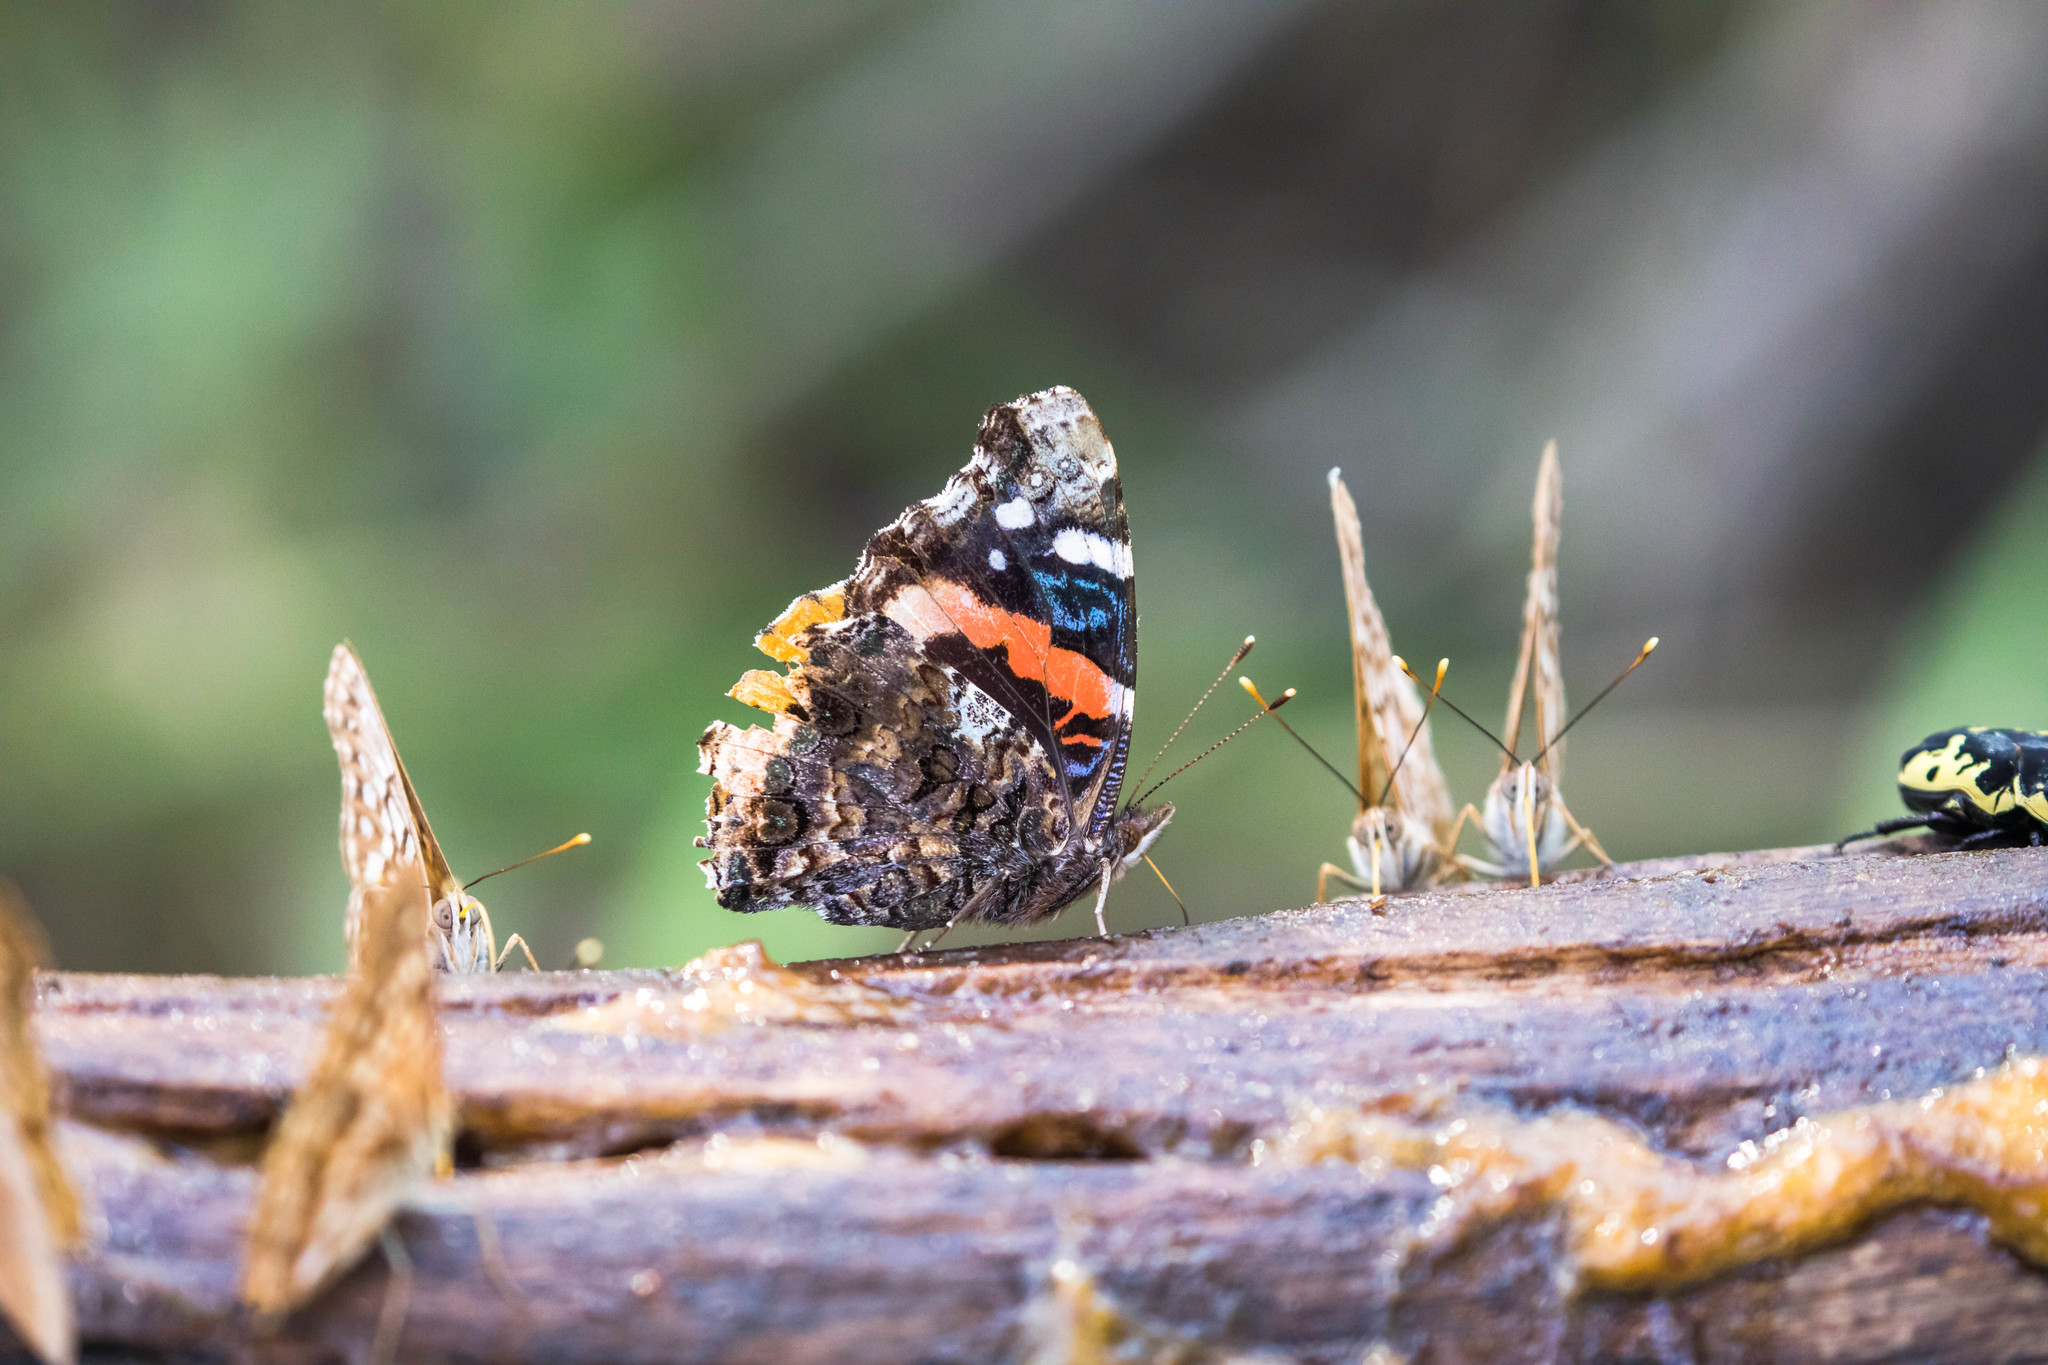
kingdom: Animalia
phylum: Arthropoda
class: Insecta
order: Lepidoptera
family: Nymphalidae
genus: Vanessa
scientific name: Vanessa atalanta
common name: Red admiral
